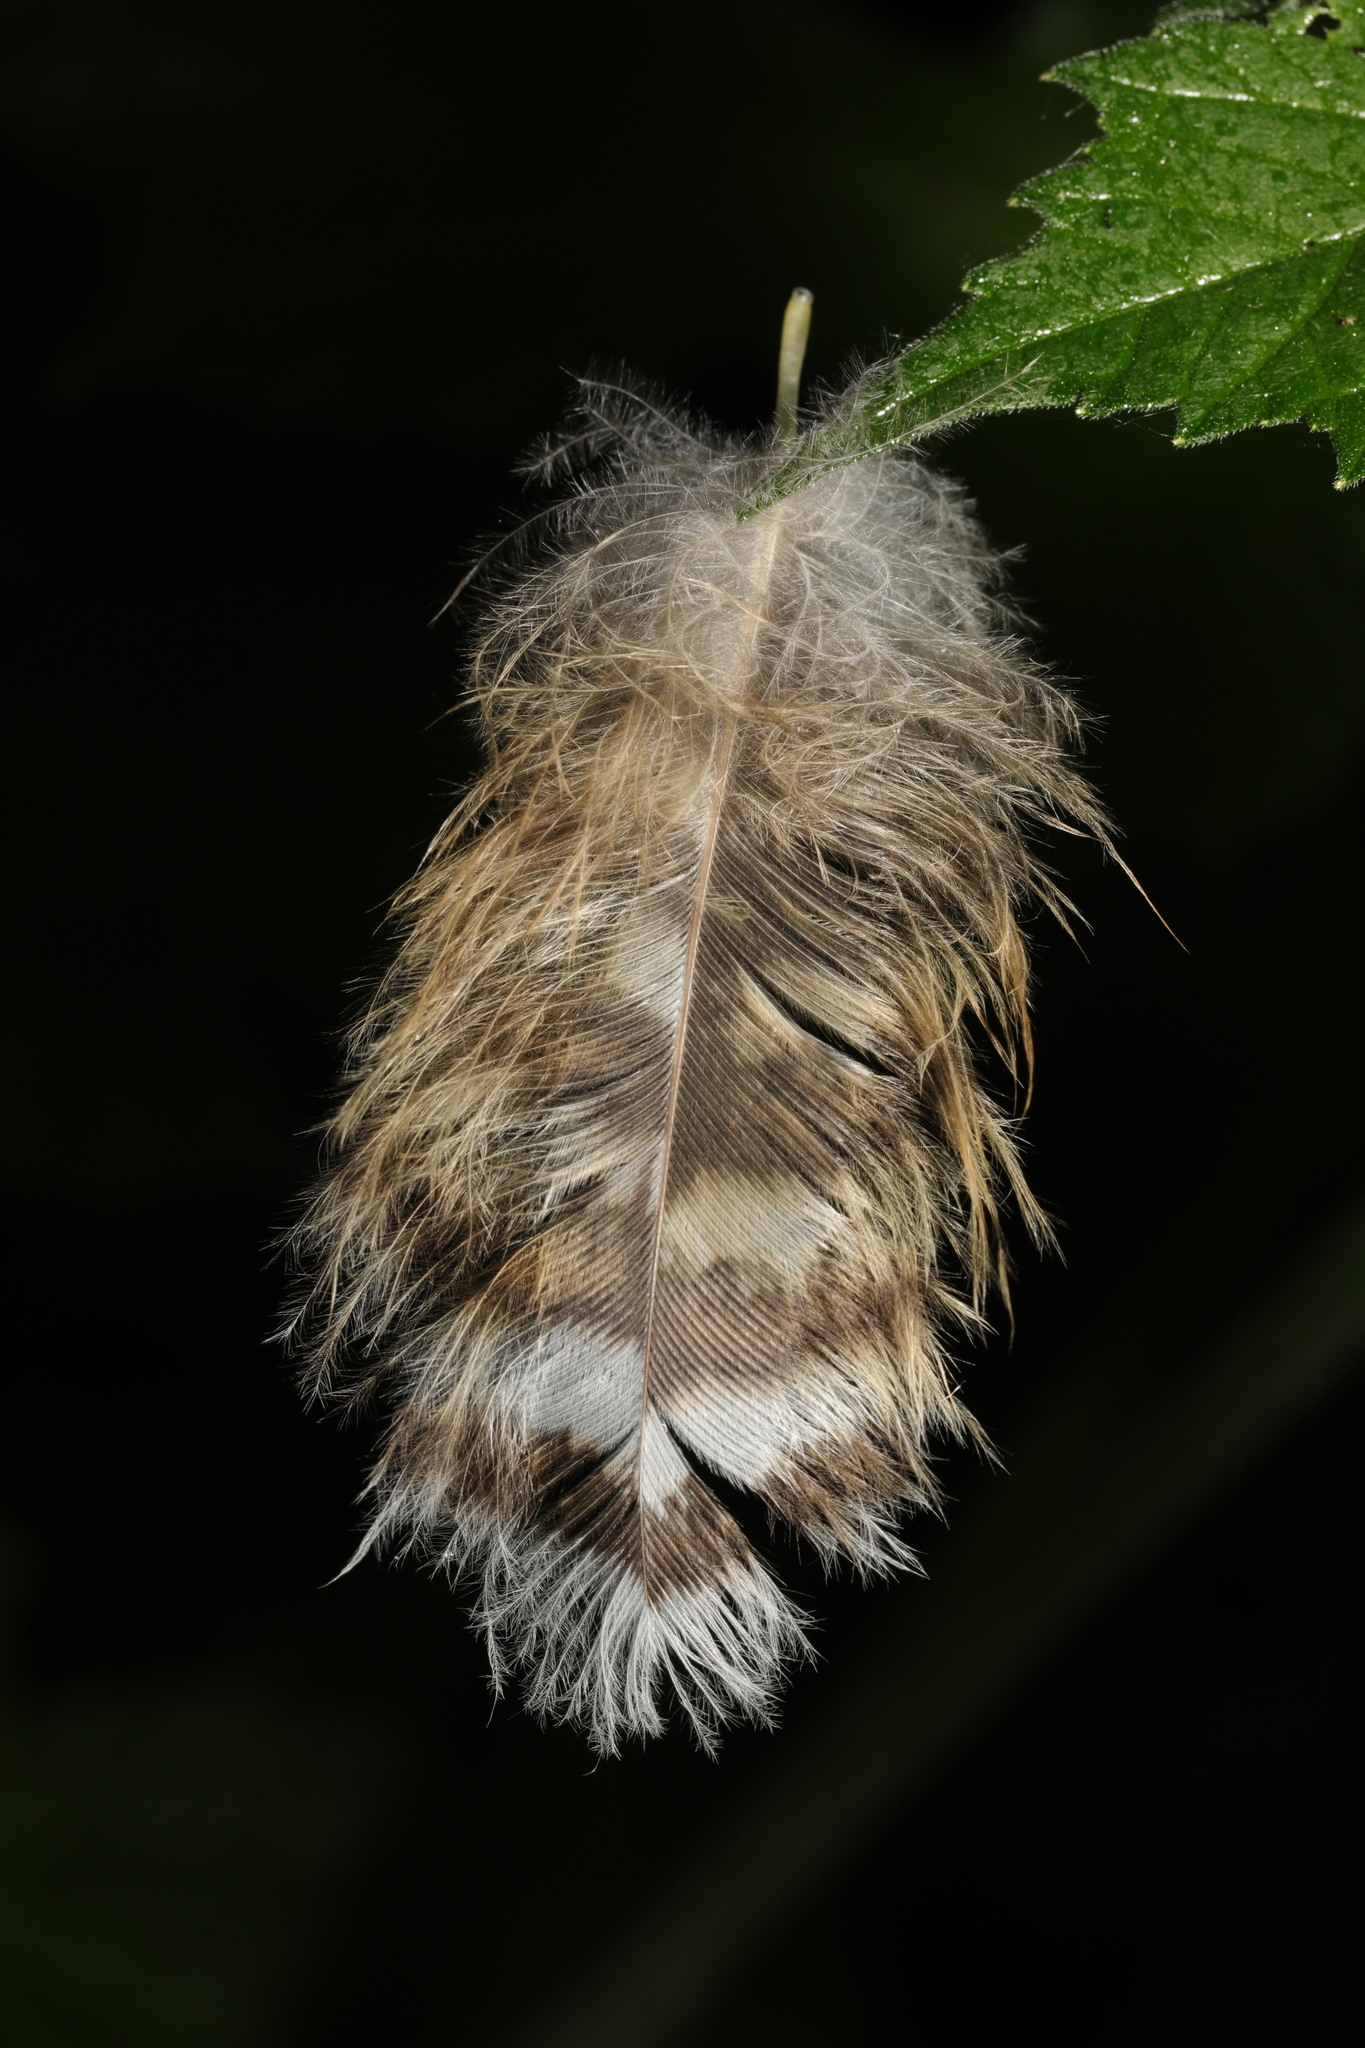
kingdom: Animalia
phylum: Chordata
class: Aves
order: Strigiformes
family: Strigidae
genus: Strix
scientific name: Strix aluco
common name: Tawny owl
